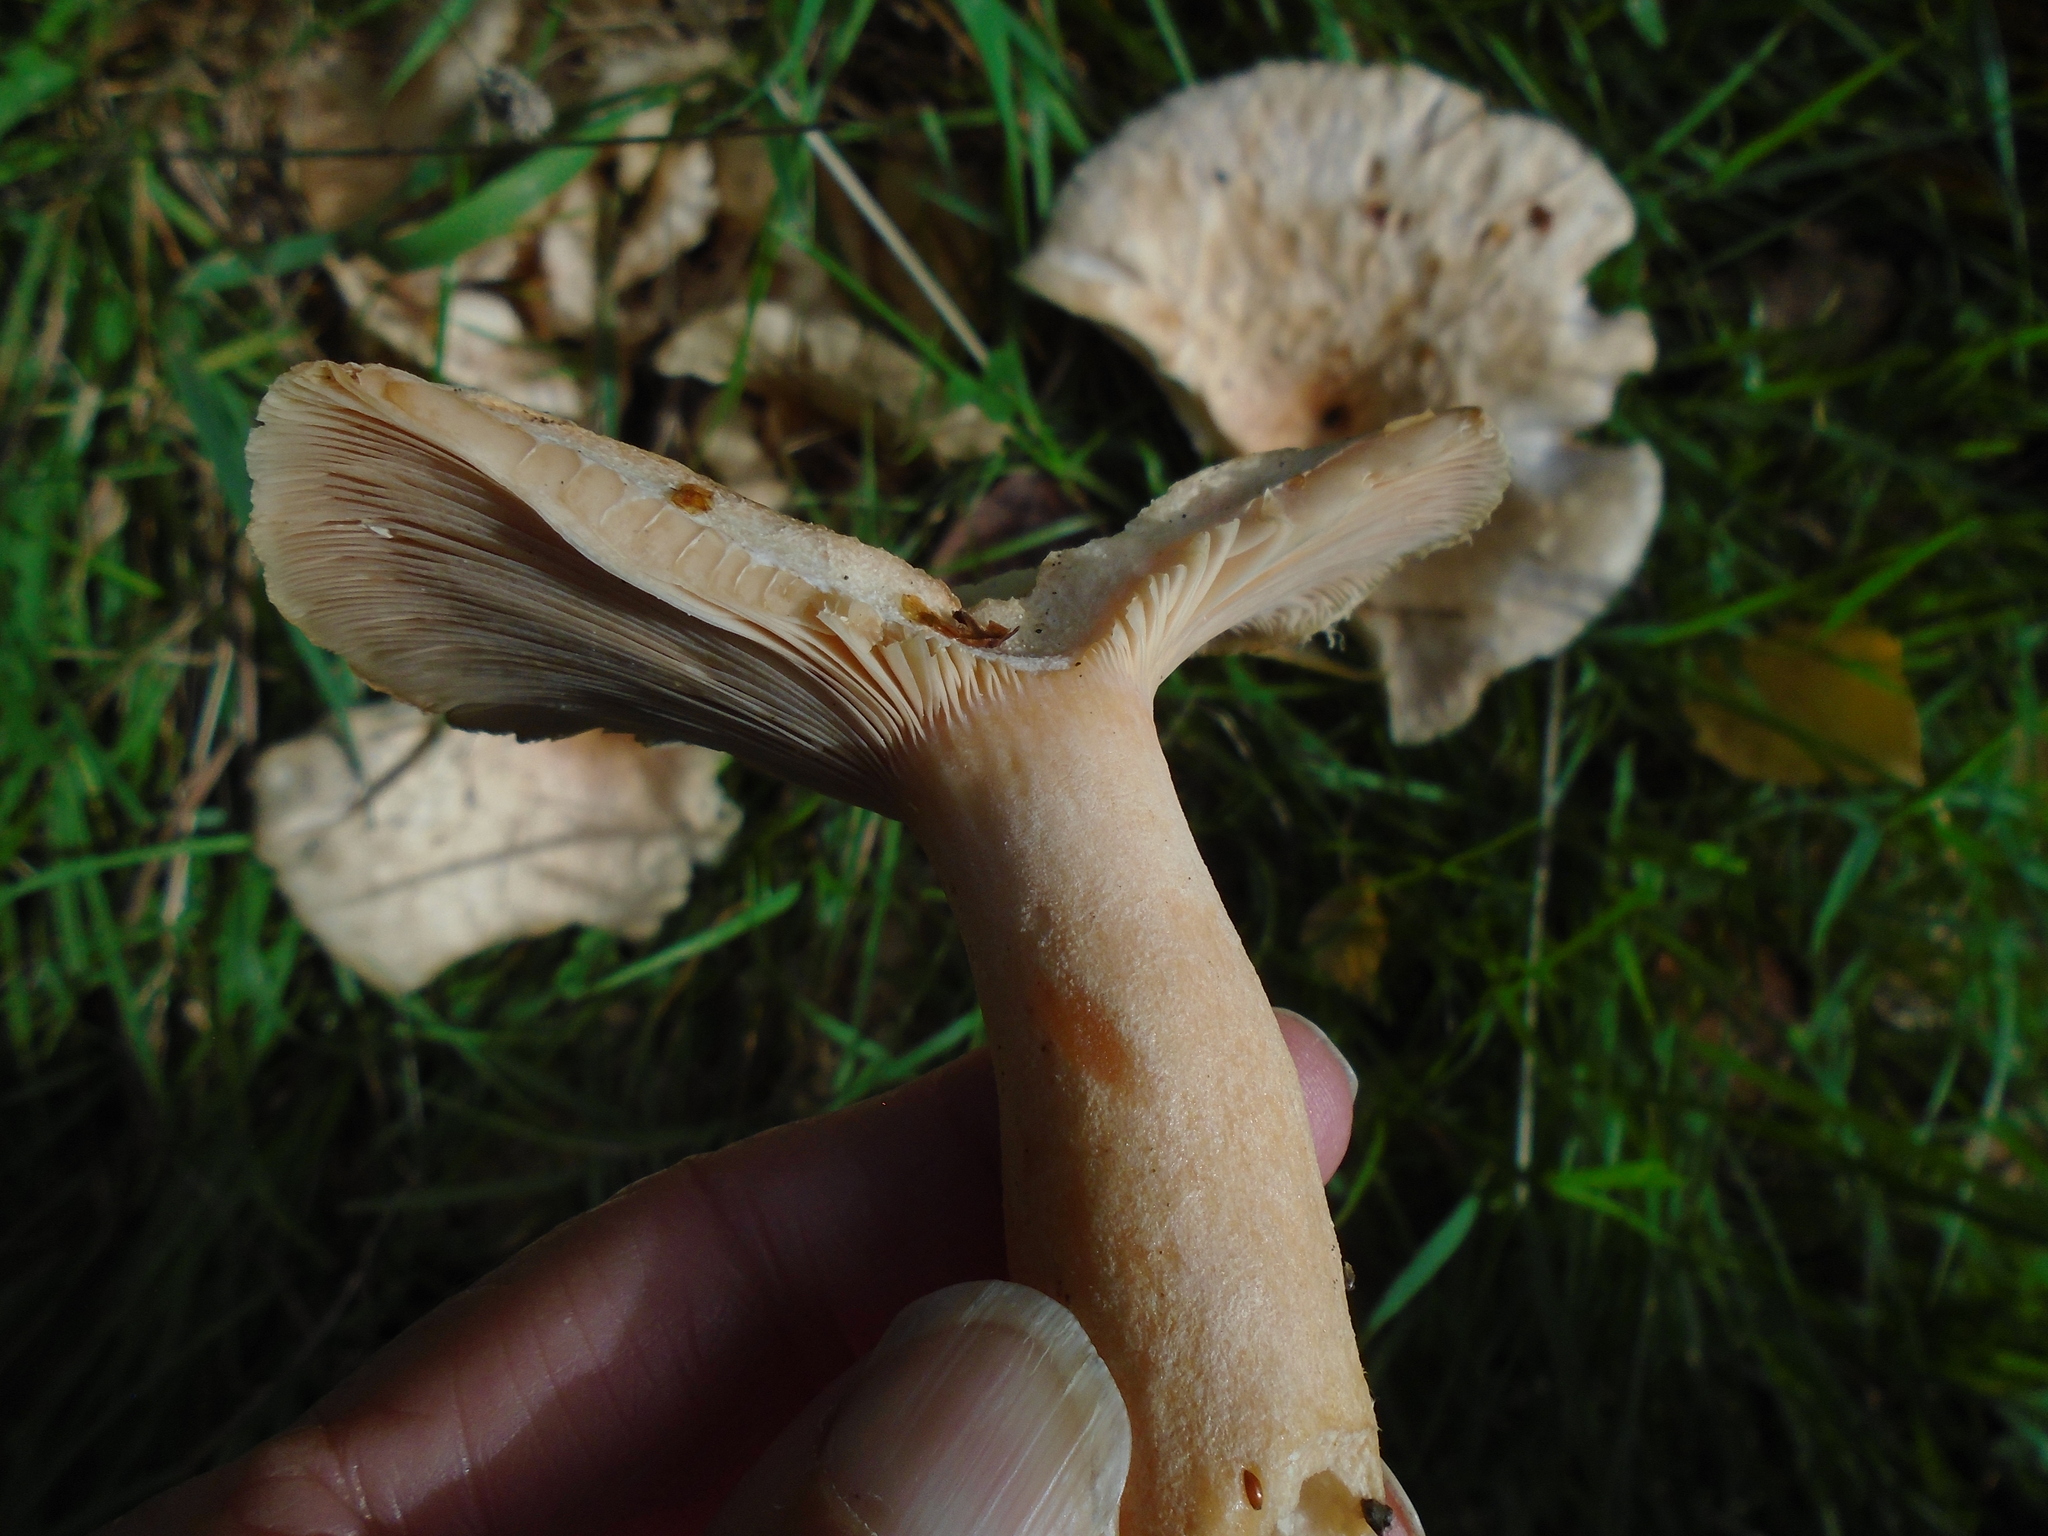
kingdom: Fungi
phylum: Basidiomycota
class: Agaricomycetes
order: Russulales
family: Russulaceae
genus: Lactarius
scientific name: Lactarius pubescens
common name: Bearded milkcap
